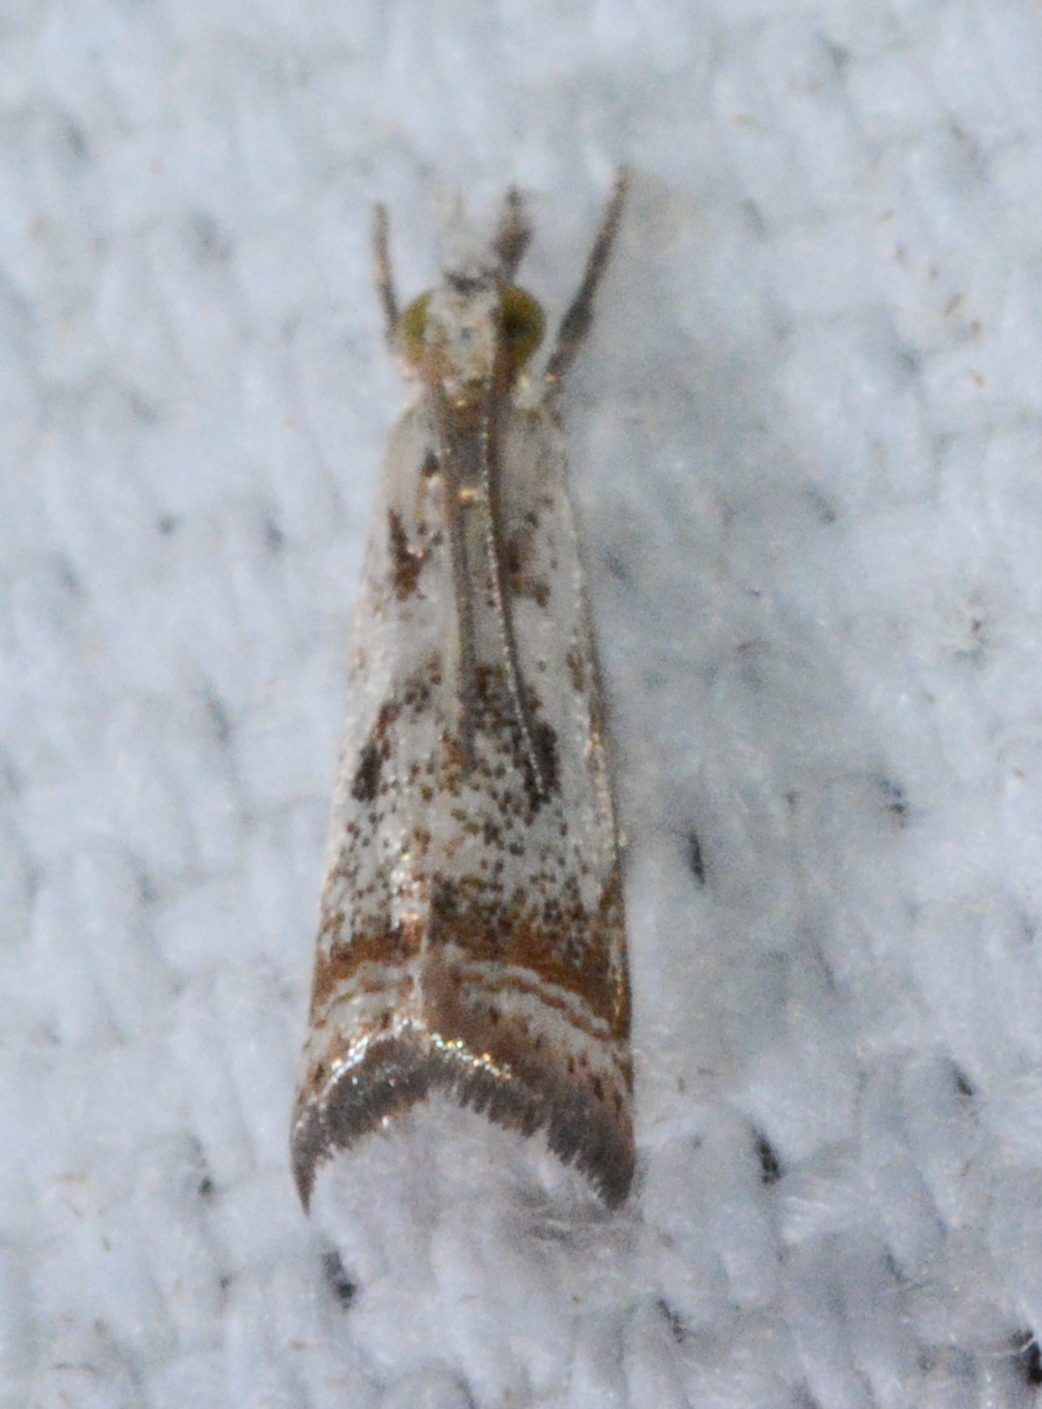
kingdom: Animalia
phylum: Arthropoda
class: Insecta
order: Lepidoptera
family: Crambidae
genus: Microcrambus
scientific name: Microcrambus elegans
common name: Elegant grass-veneer
